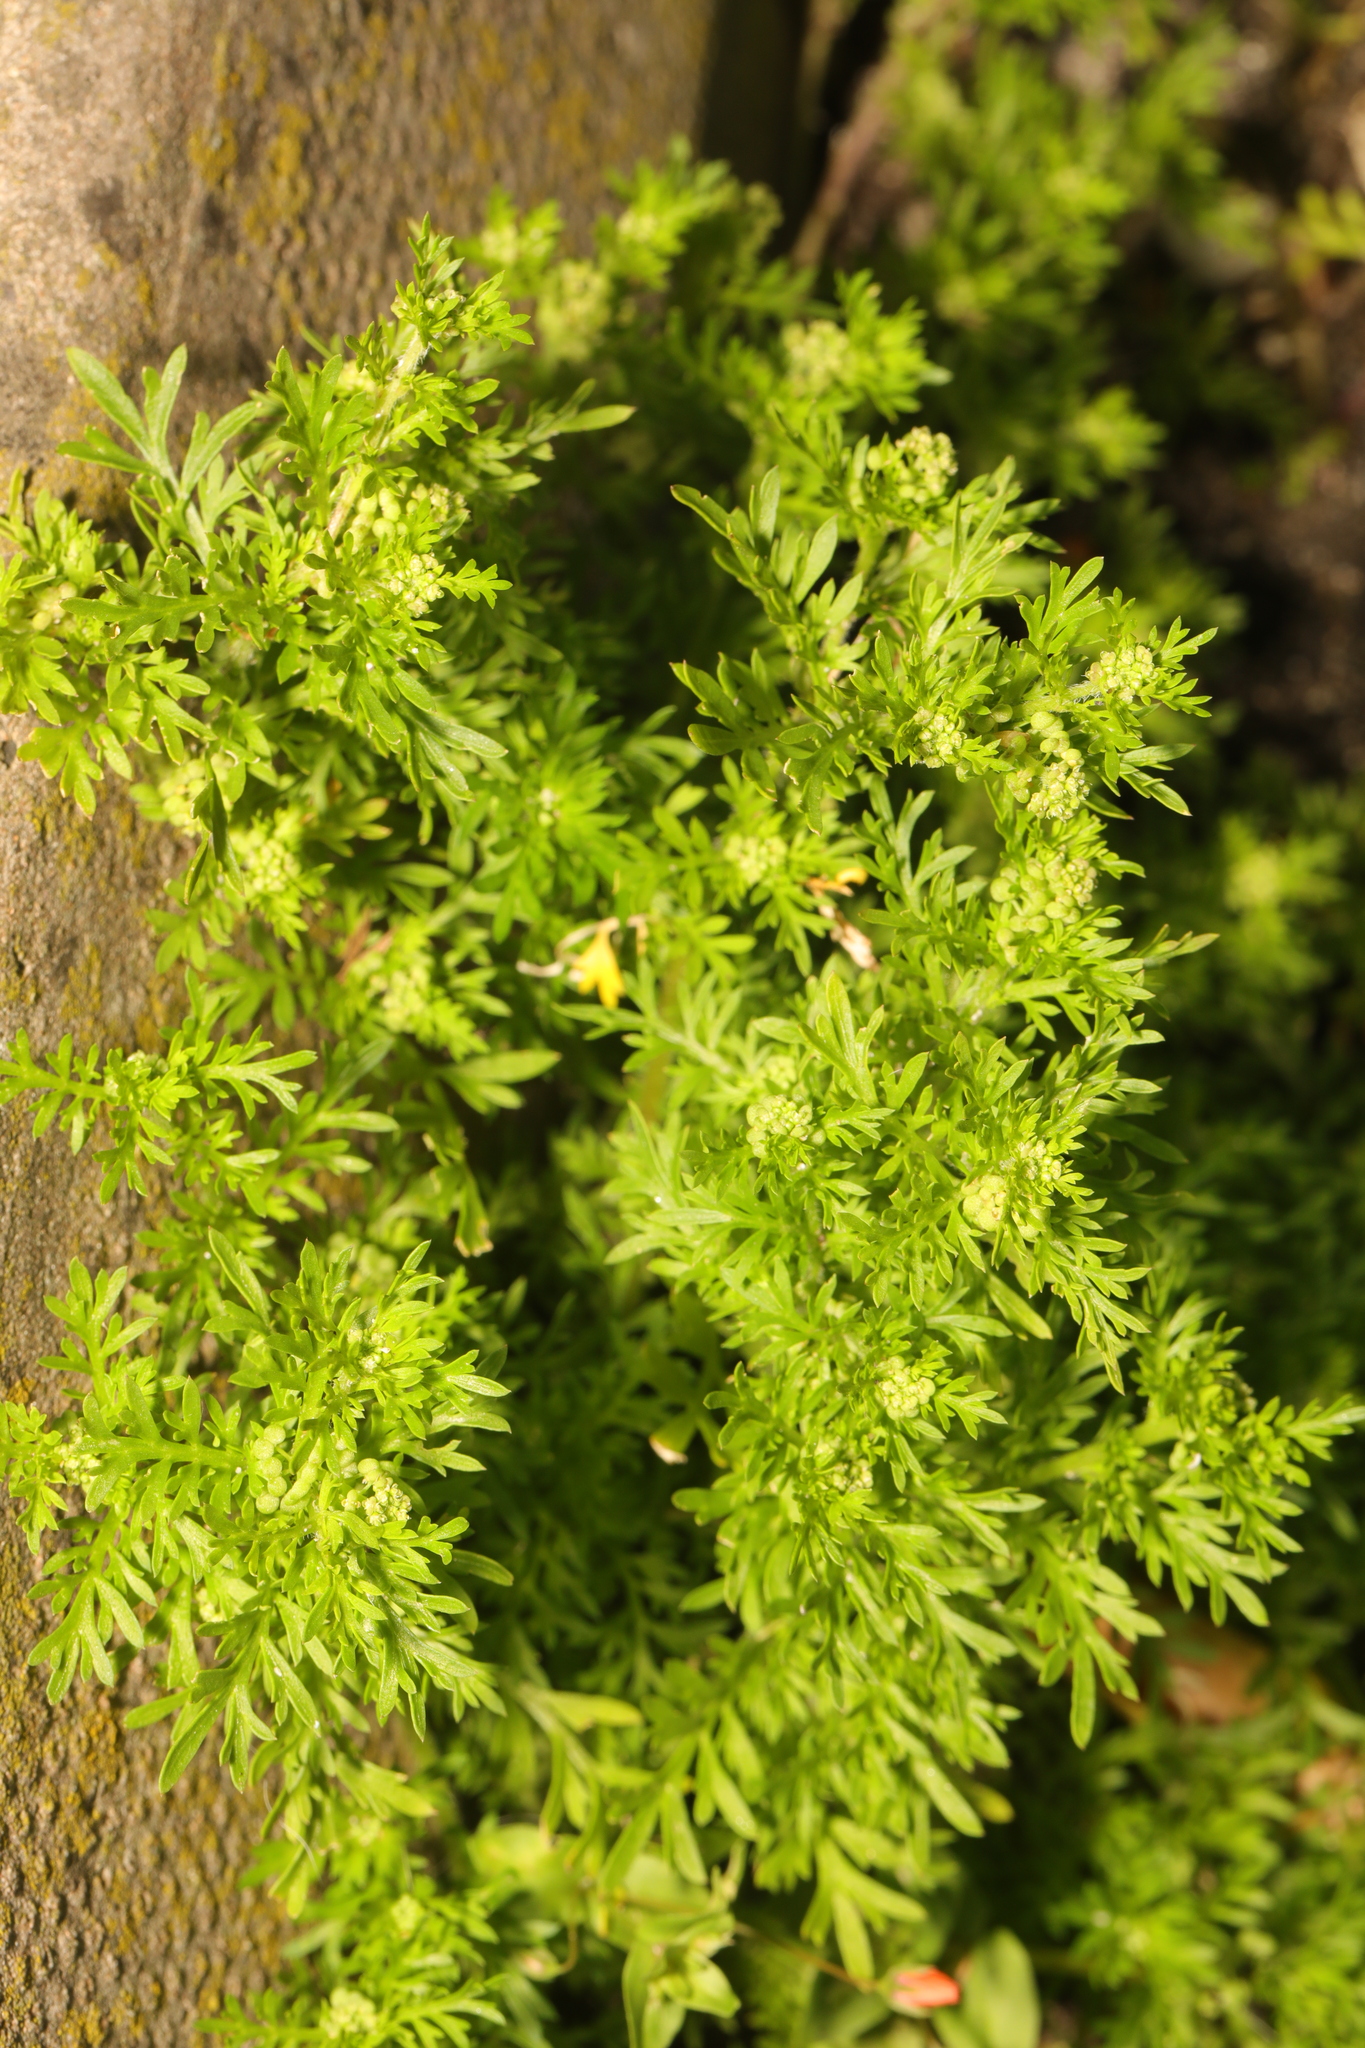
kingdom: Plantae
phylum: Tracheophyta
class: Magnoliopsida
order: Brassicales
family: Brassicaceae
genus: Lepidium
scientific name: Lepidium didymum
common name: Lesser swinecress
